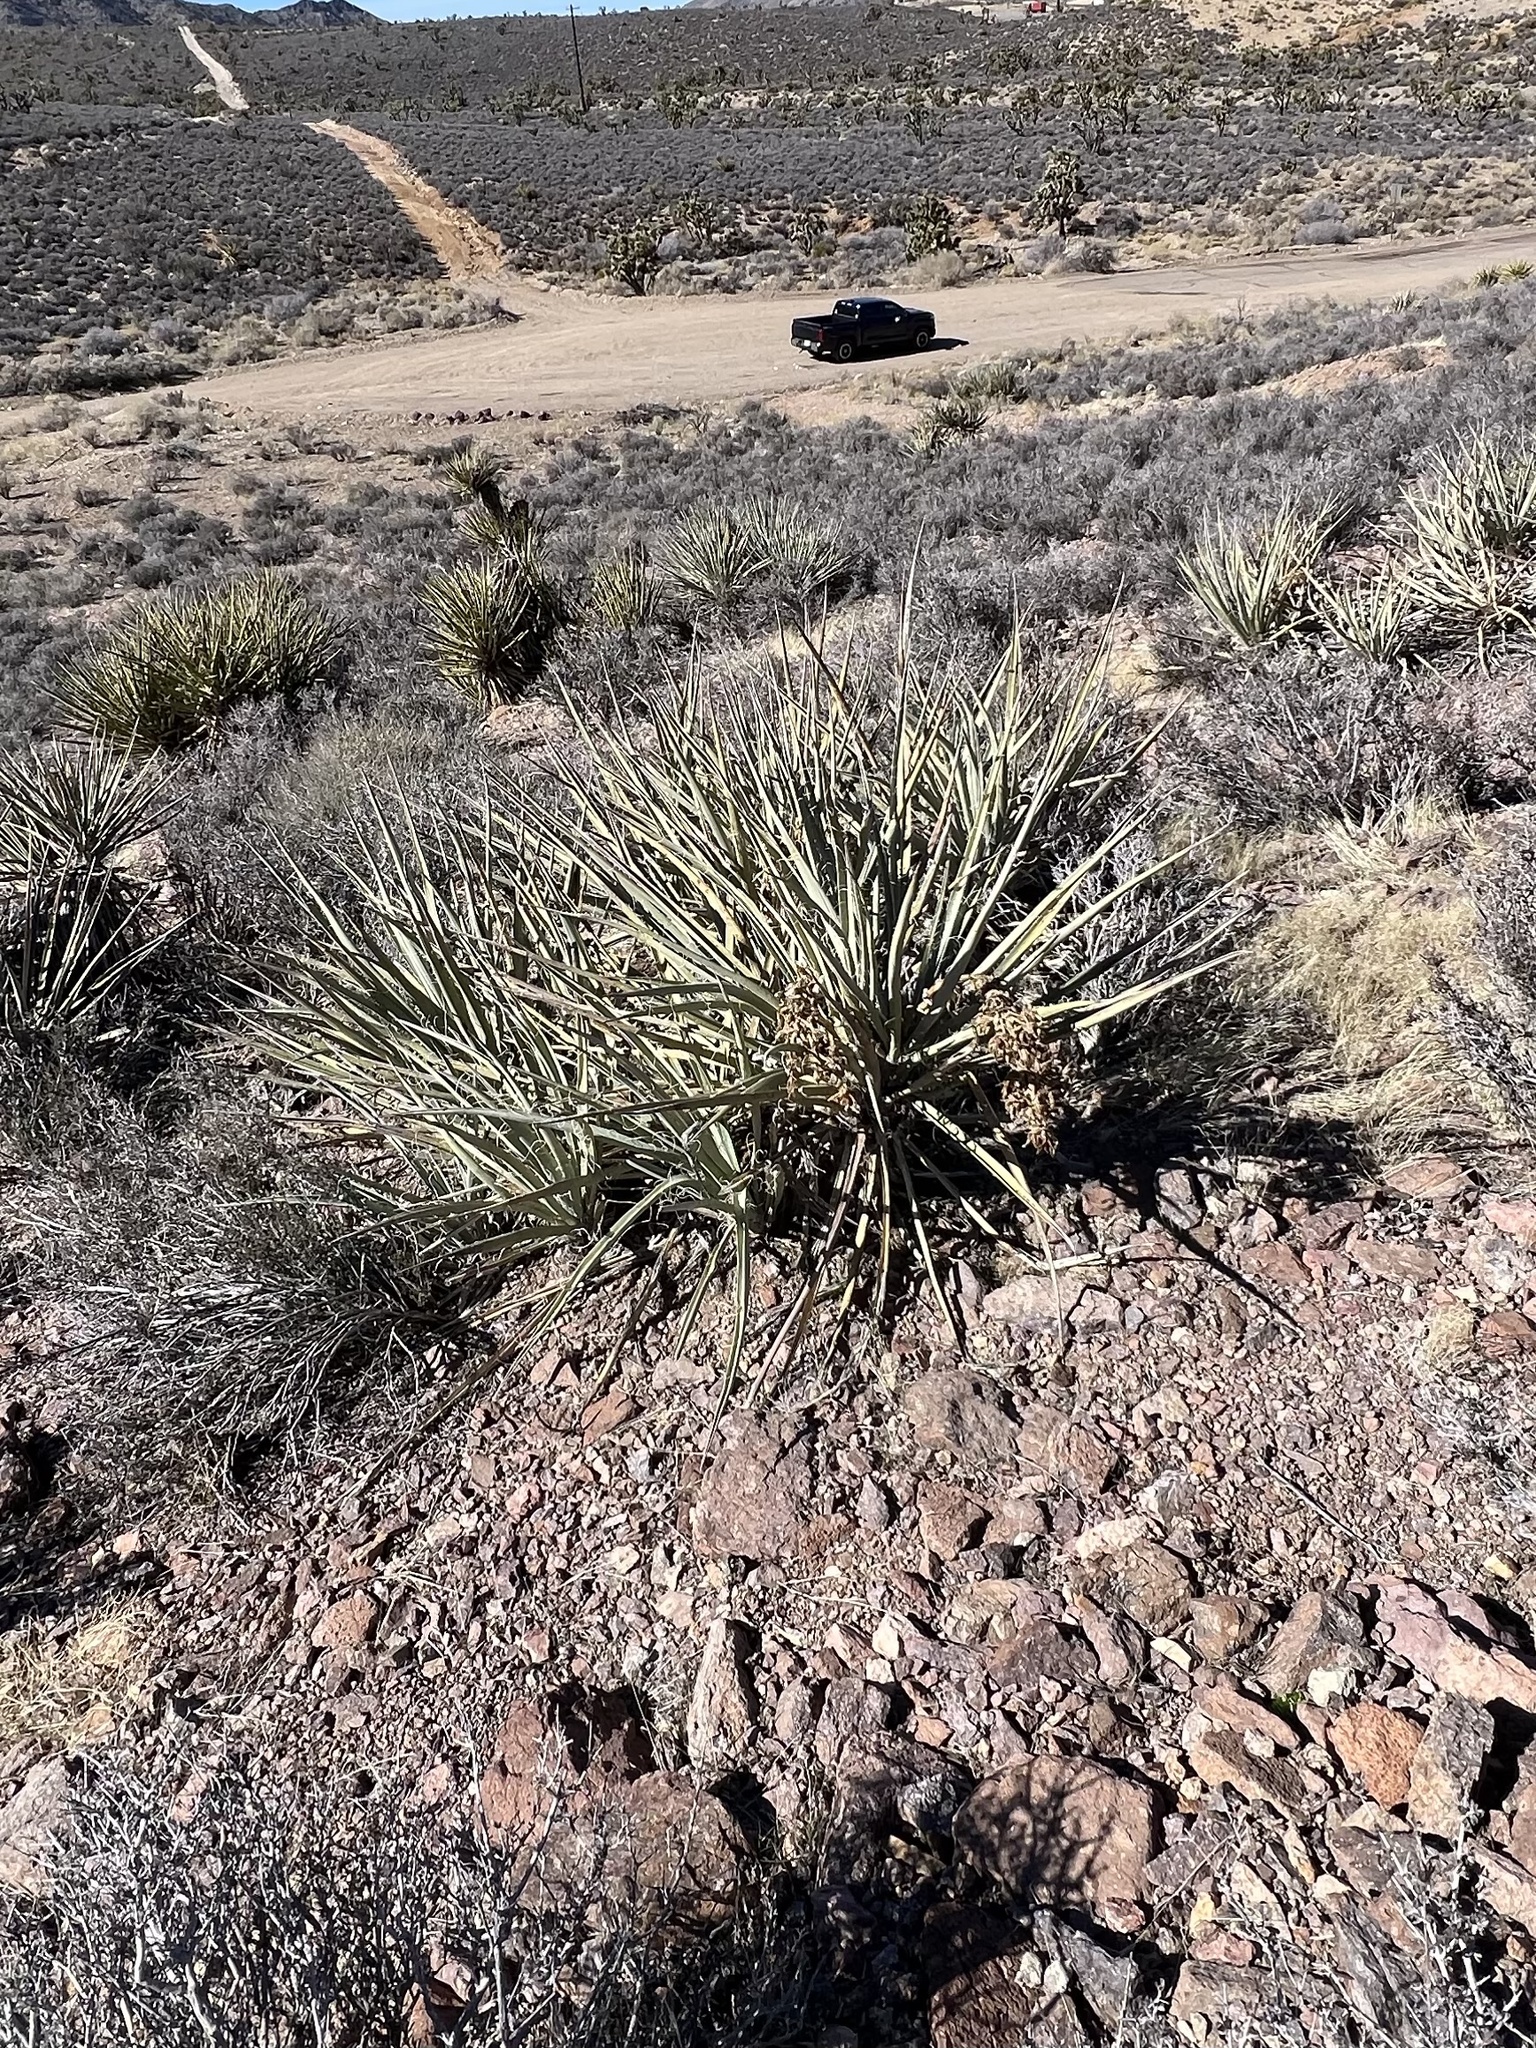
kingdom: Plantae
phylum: Tracheophyta
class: Liliopsida
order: Asparagales
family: Asparagaceae
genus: Yucca
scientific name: Yucca baccata
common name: Banana yucca
